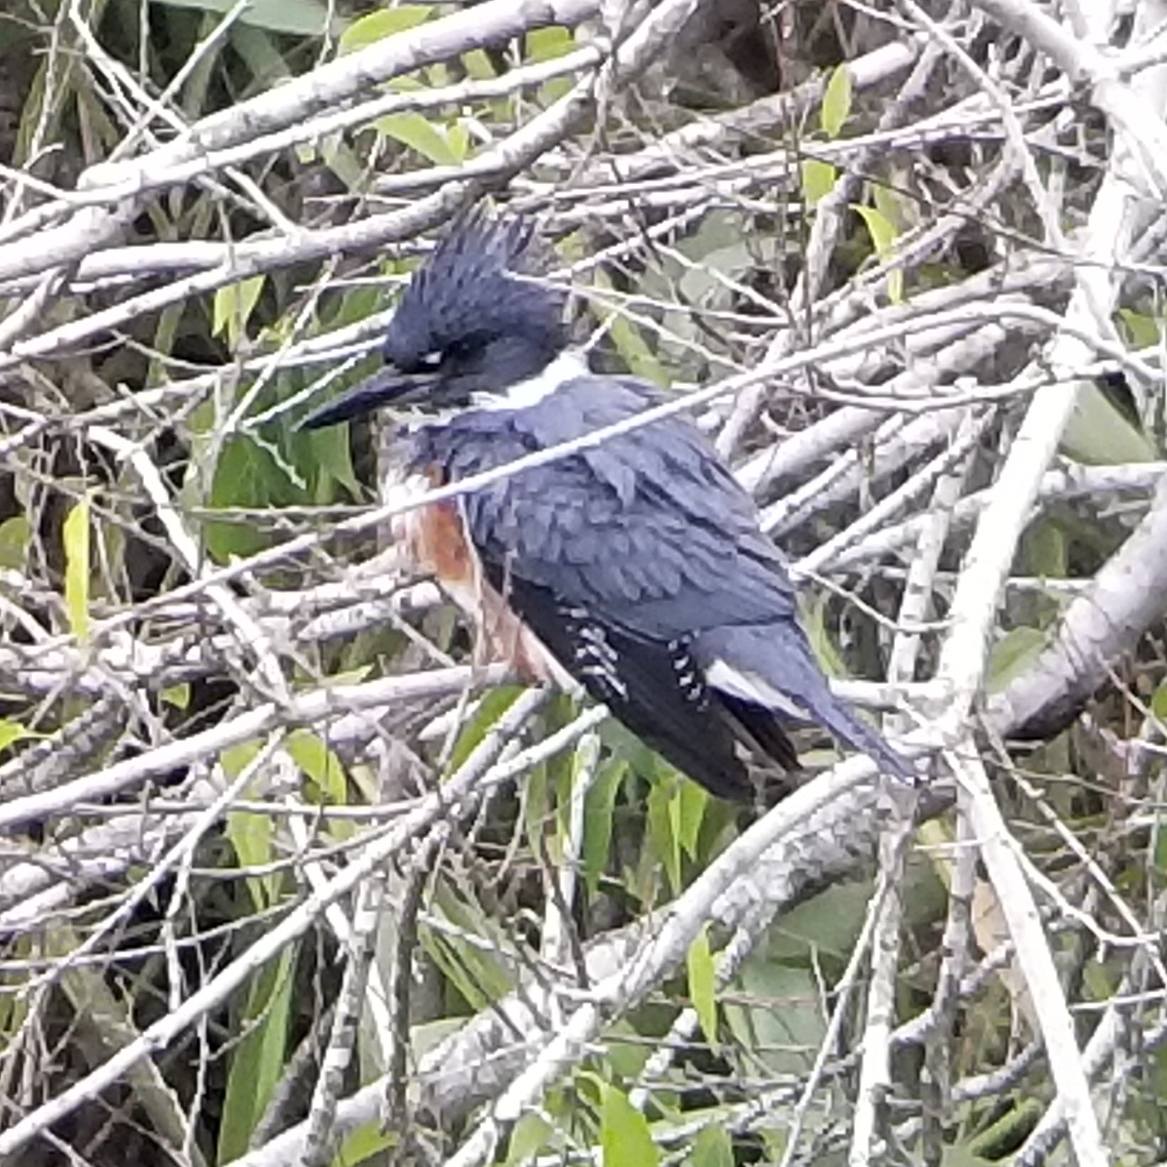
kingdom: Animalia
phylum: Chordata
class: Aves
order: Coraciiformes
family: Alcedinidae
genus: Megaceryle
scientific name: Megaceryle alcyon
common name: Belted kingfisher
